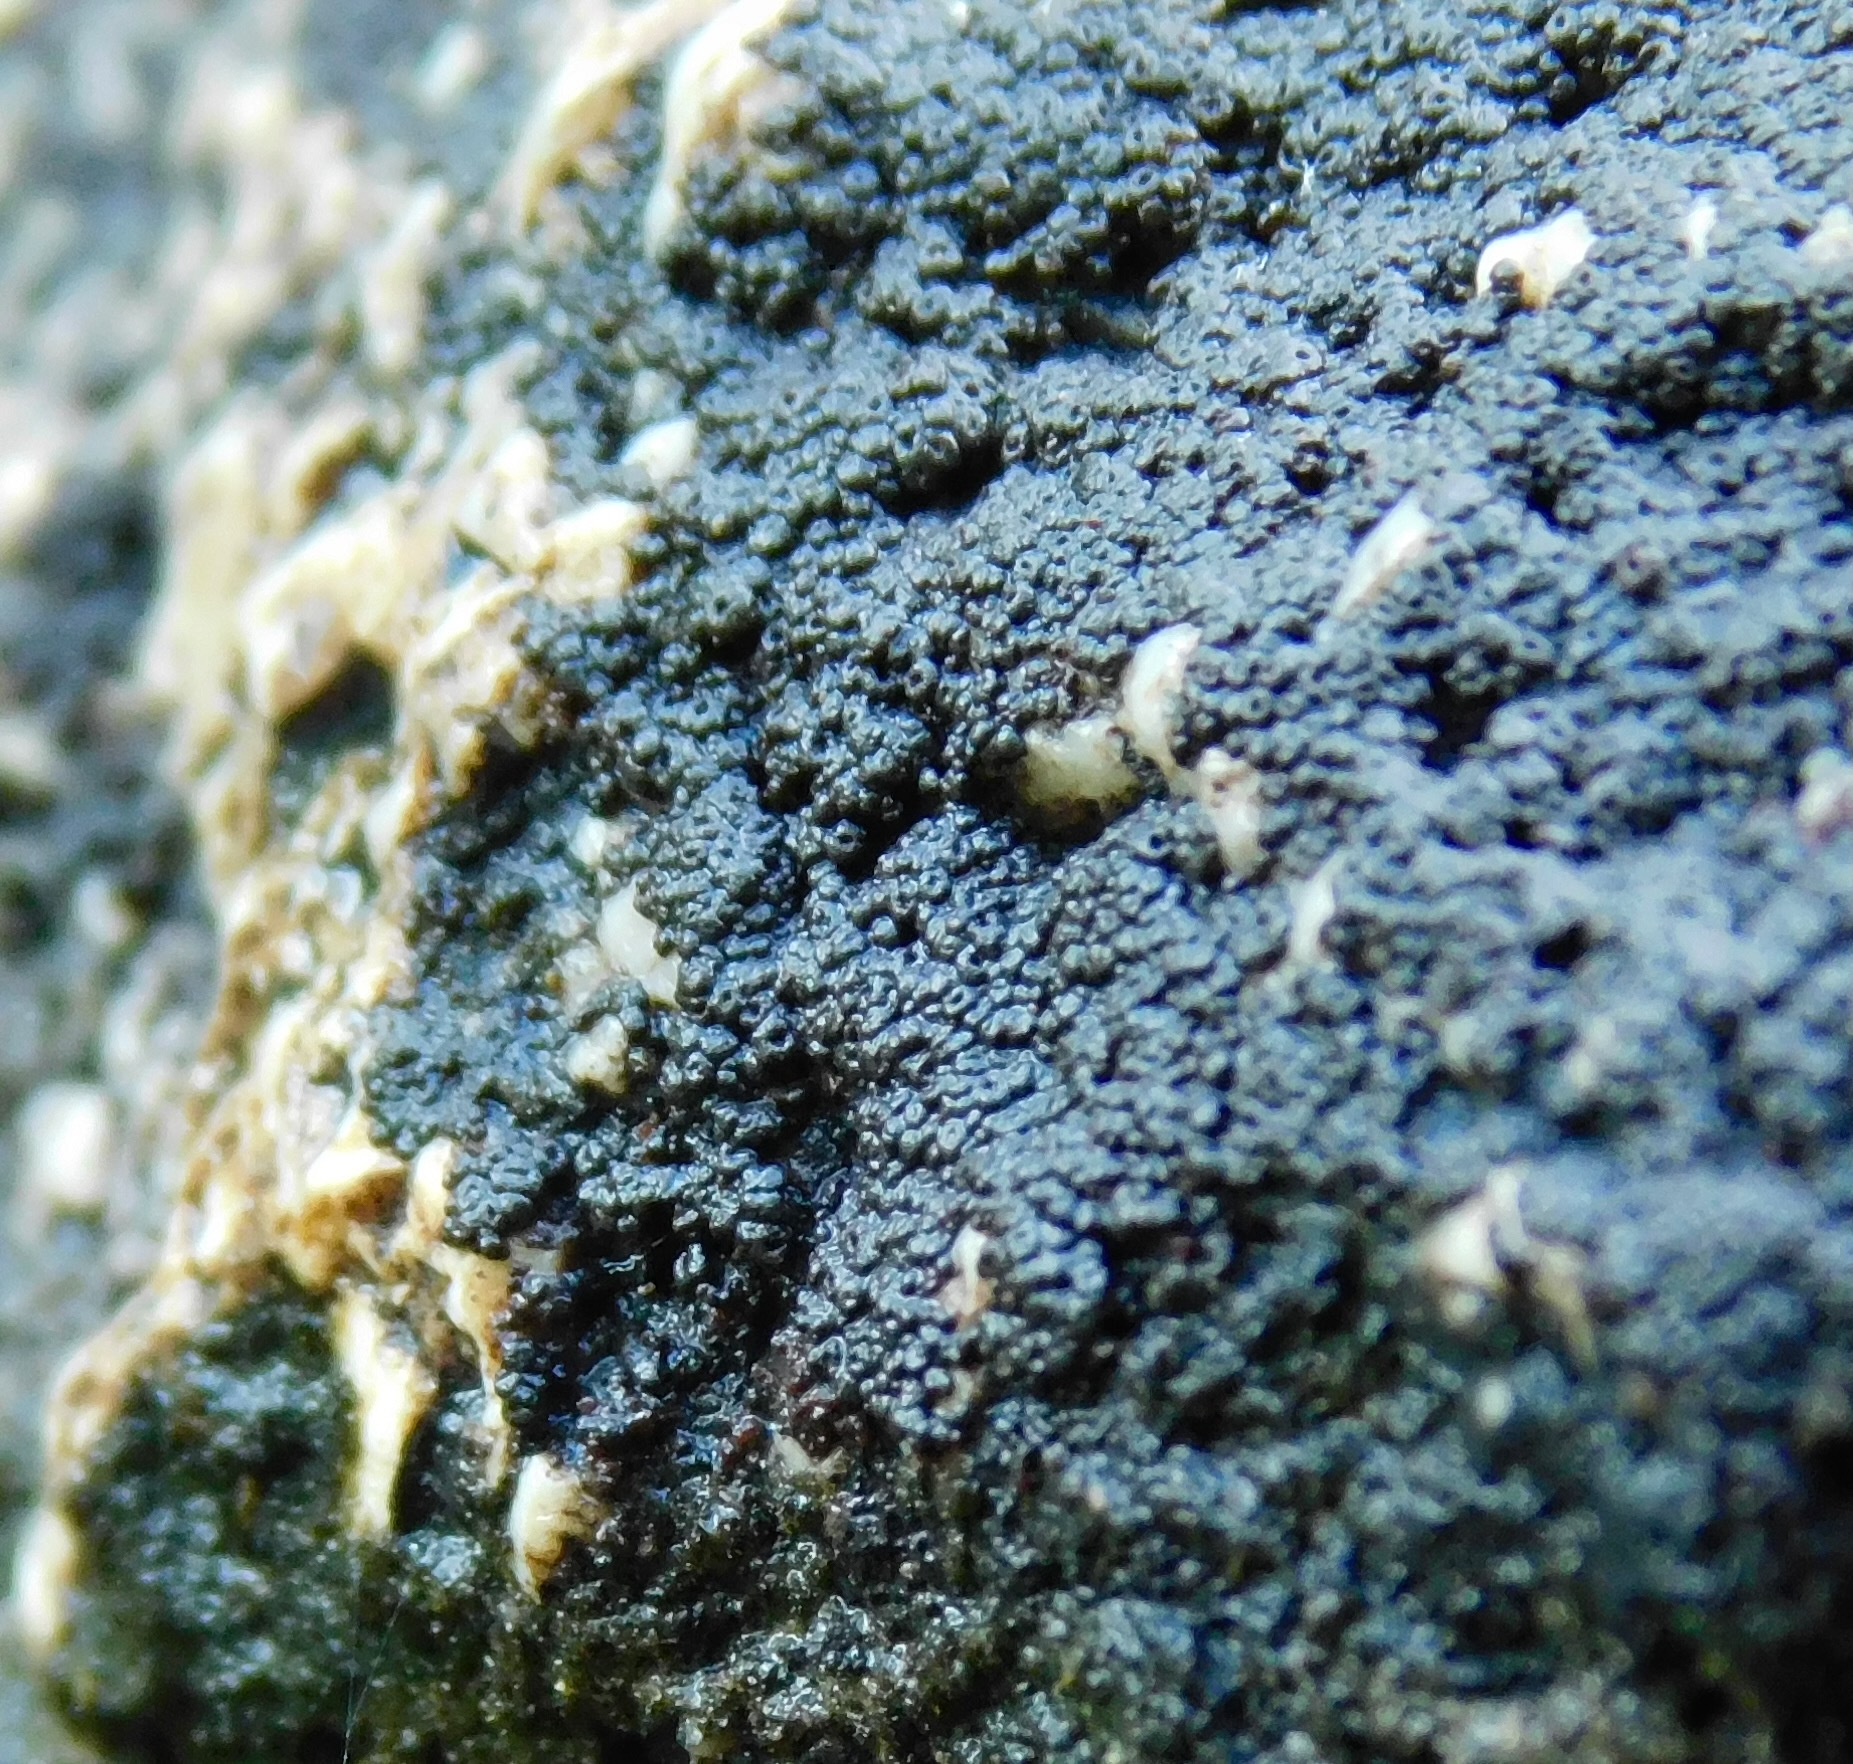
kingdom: Fungi
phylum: Ascomycota
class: Lichinomycetes
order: Lichinales
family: Lichinaceae
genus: Pyrenopsis
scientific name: Pyrenopsis polycocca
